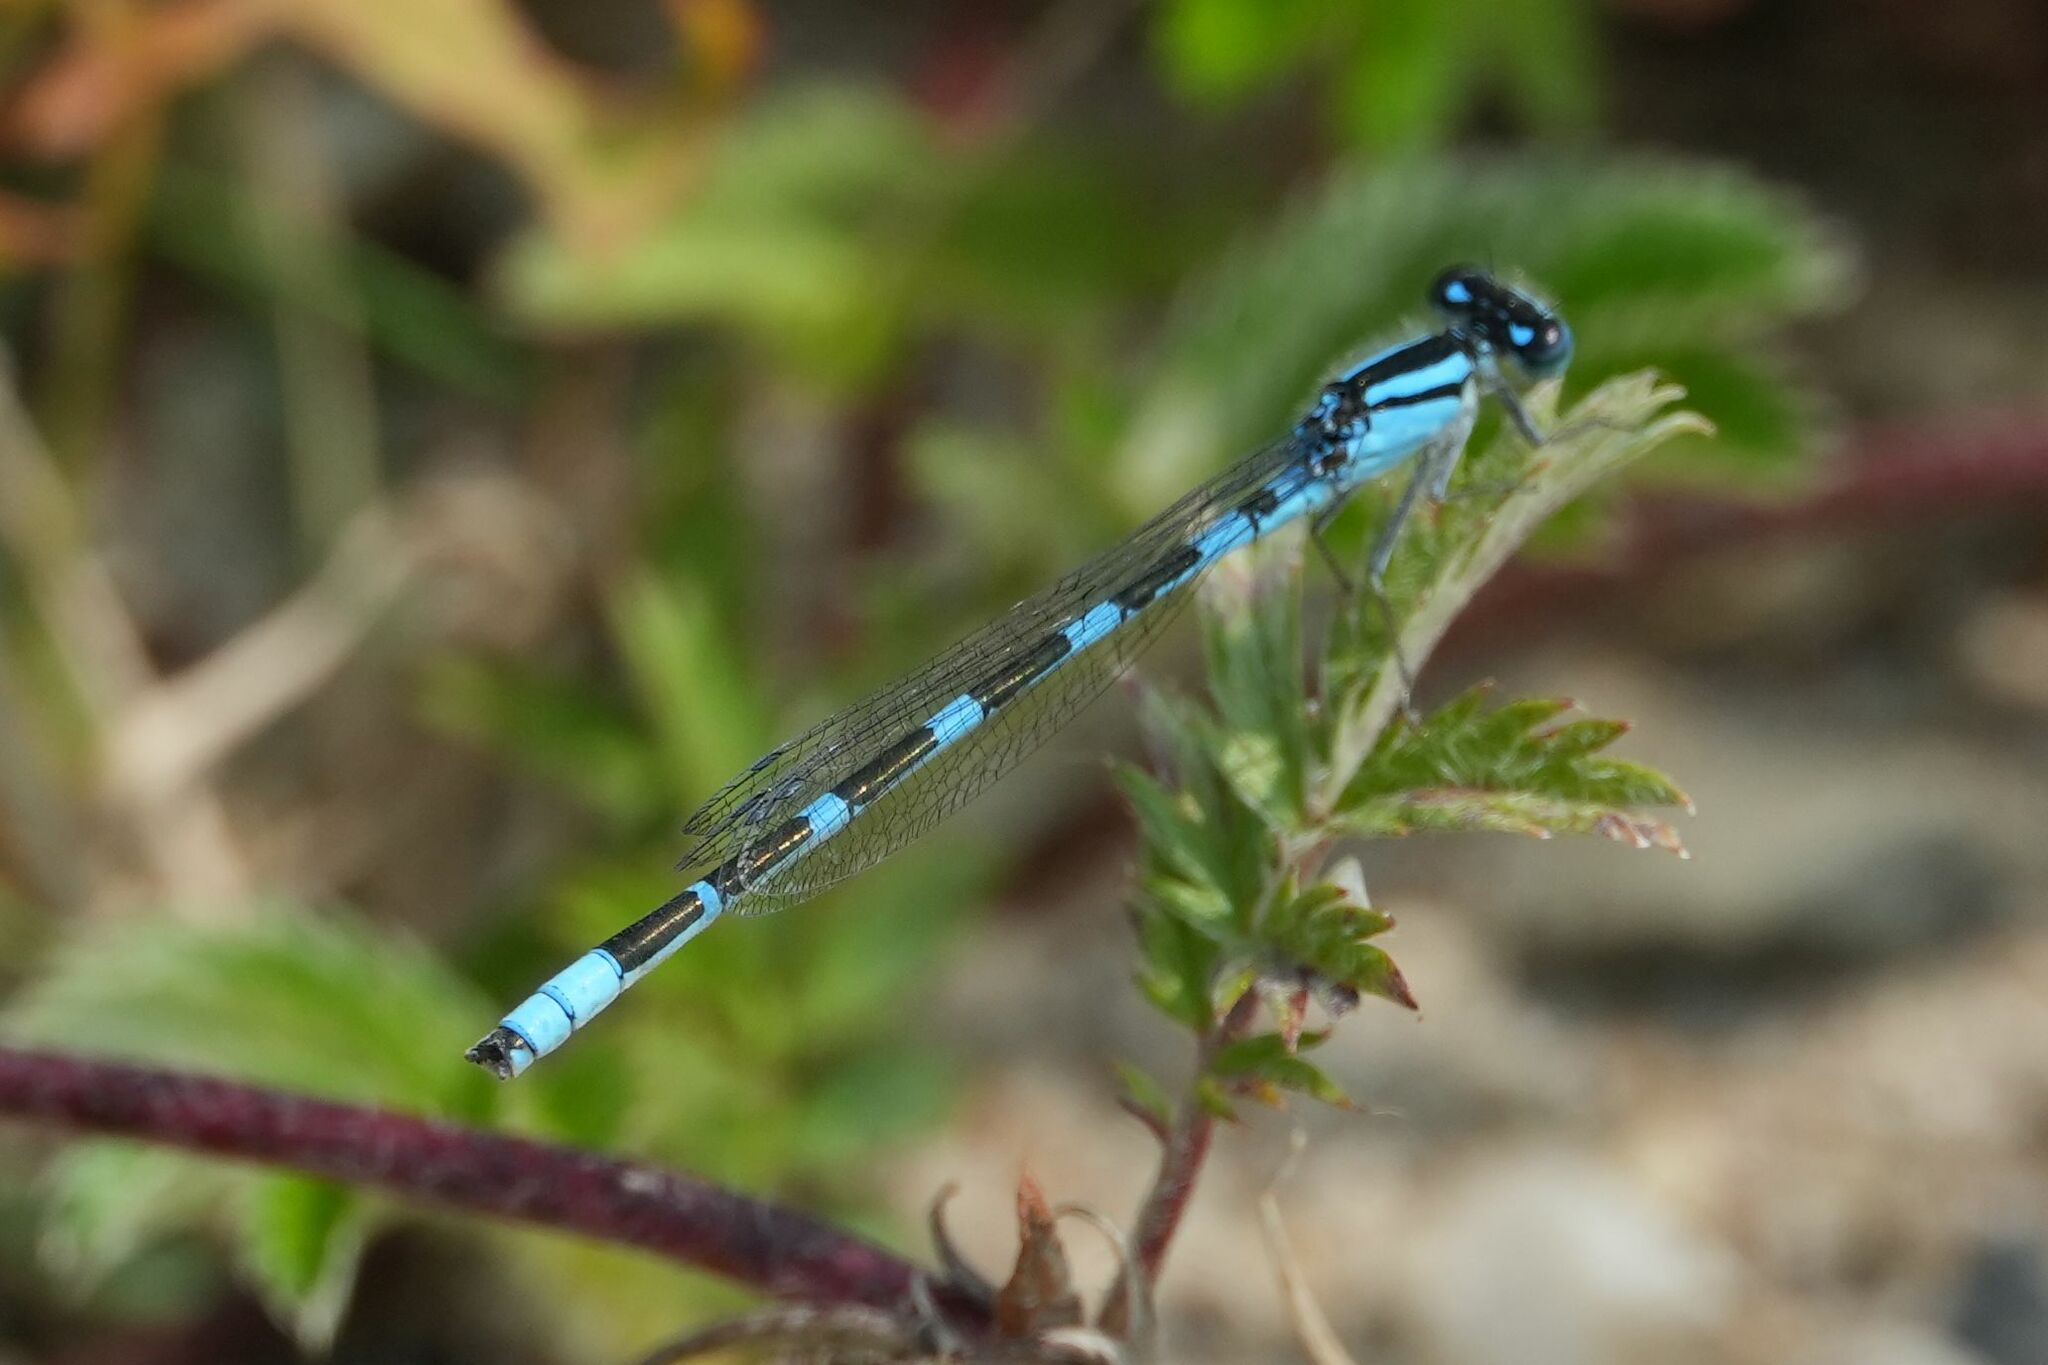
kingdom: Animalia
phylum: Arthropoda
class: Insecta
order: Odonata
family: Coenagrionidae
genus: Enallagma
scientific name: Enallagma carunculatum
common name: Tule bluet
